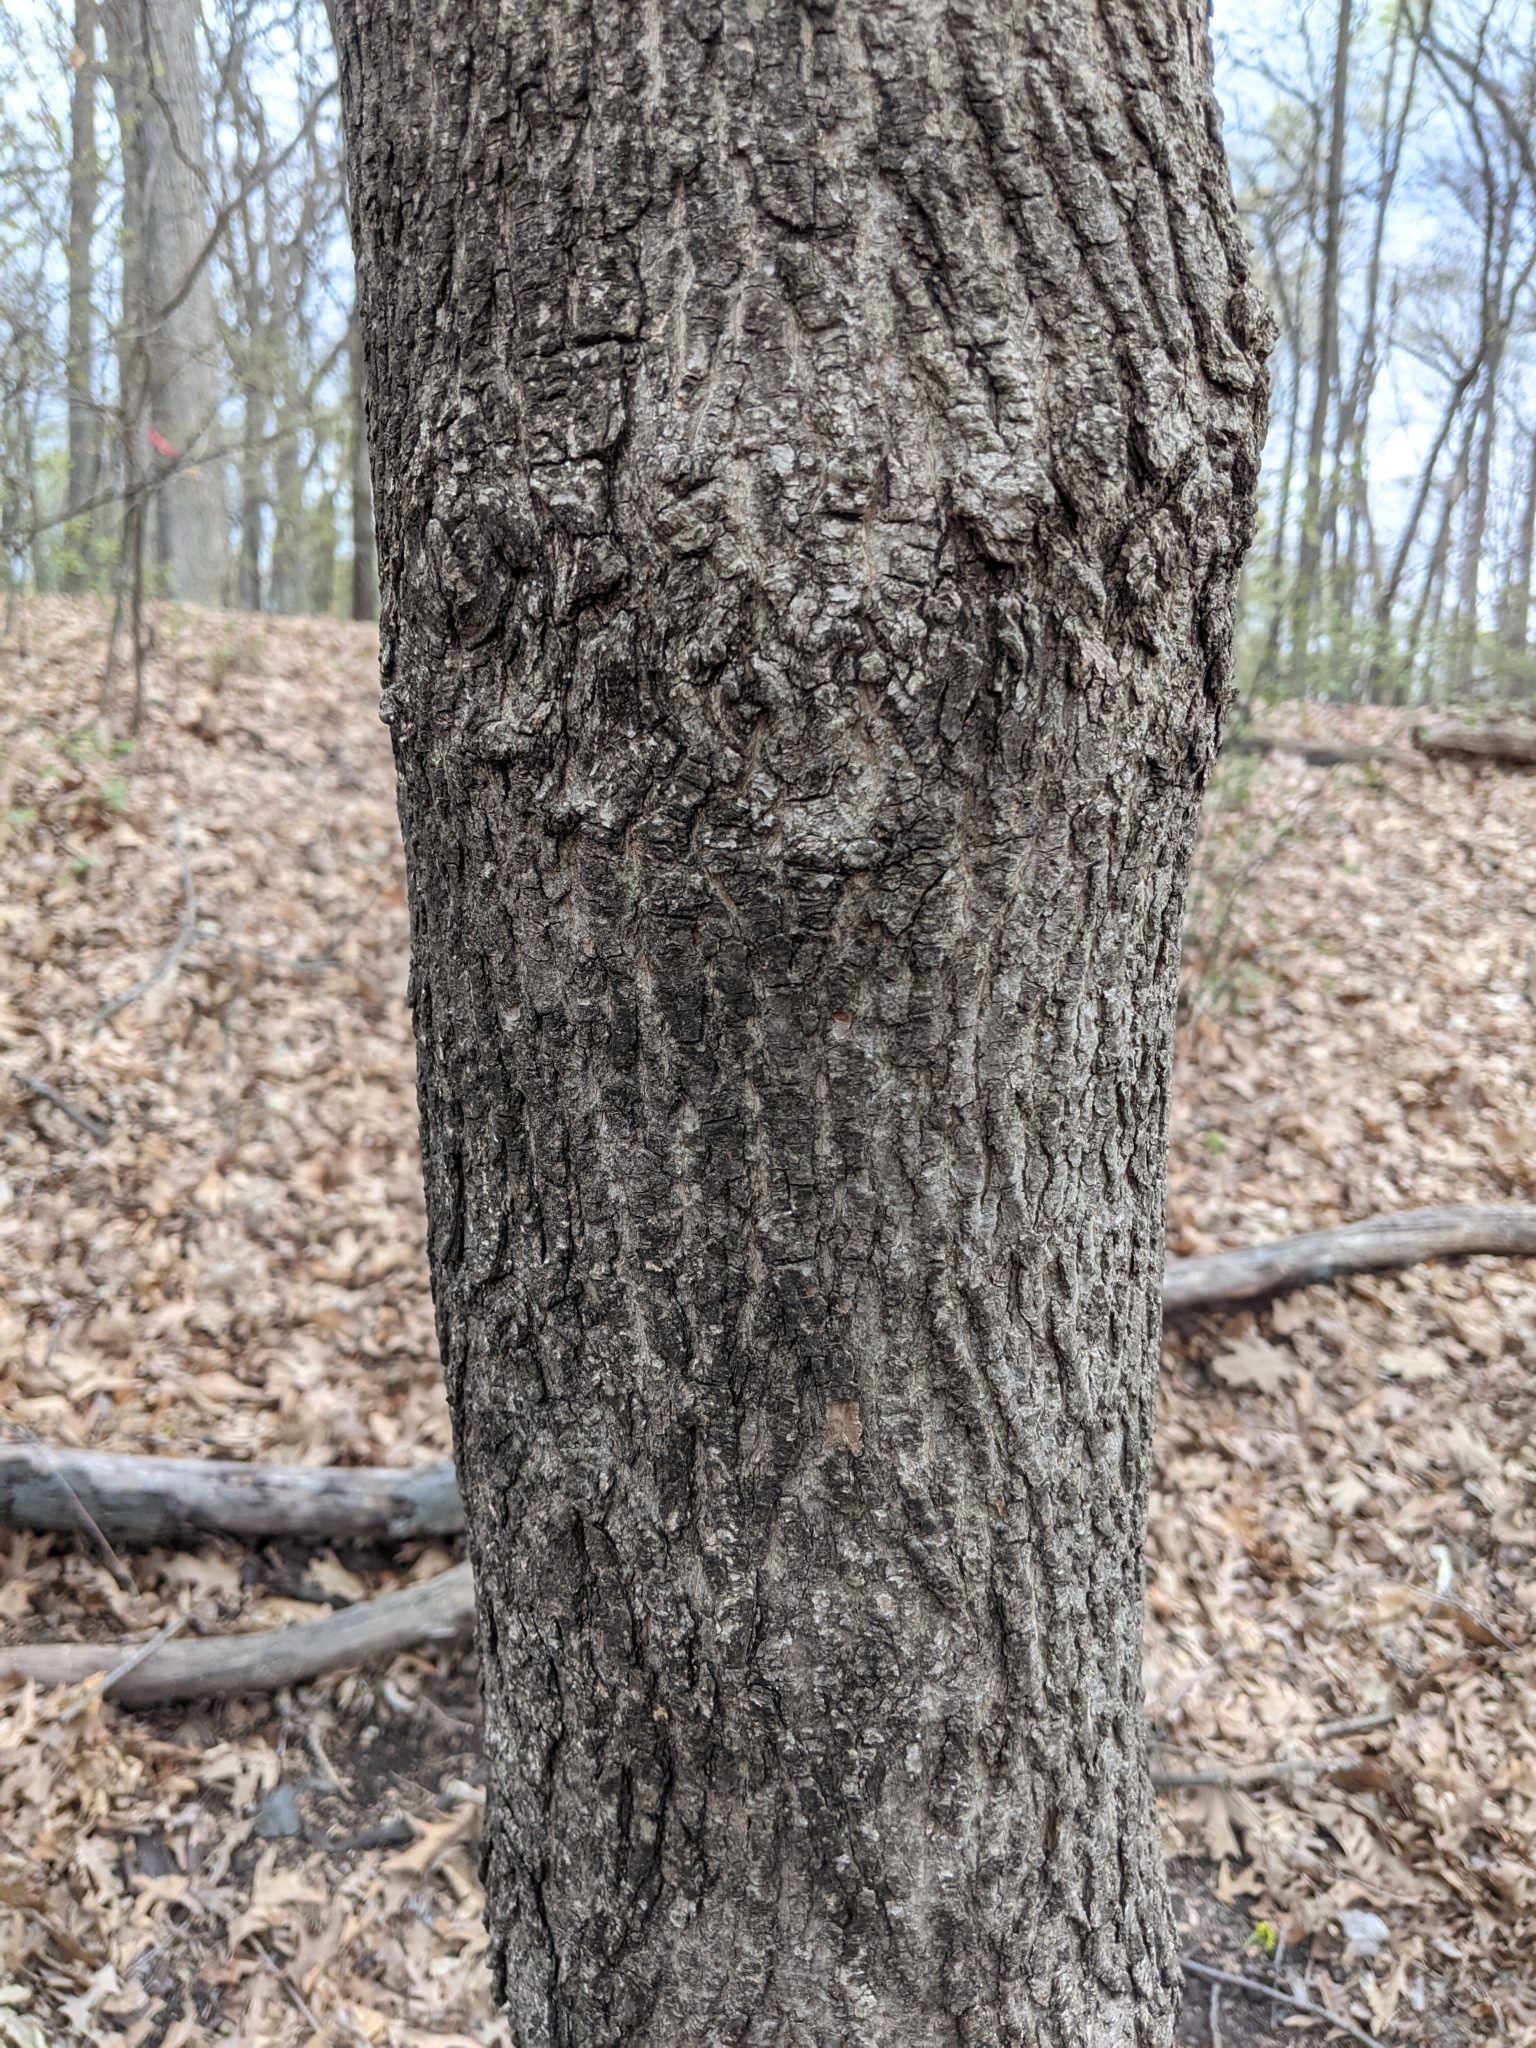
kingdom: Plantae
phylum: Tracheophyta
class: Magnoliopsida
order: Sapindales
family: Sapindaceae
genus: Acer
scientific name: Acer platanoides
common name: Norway maple
